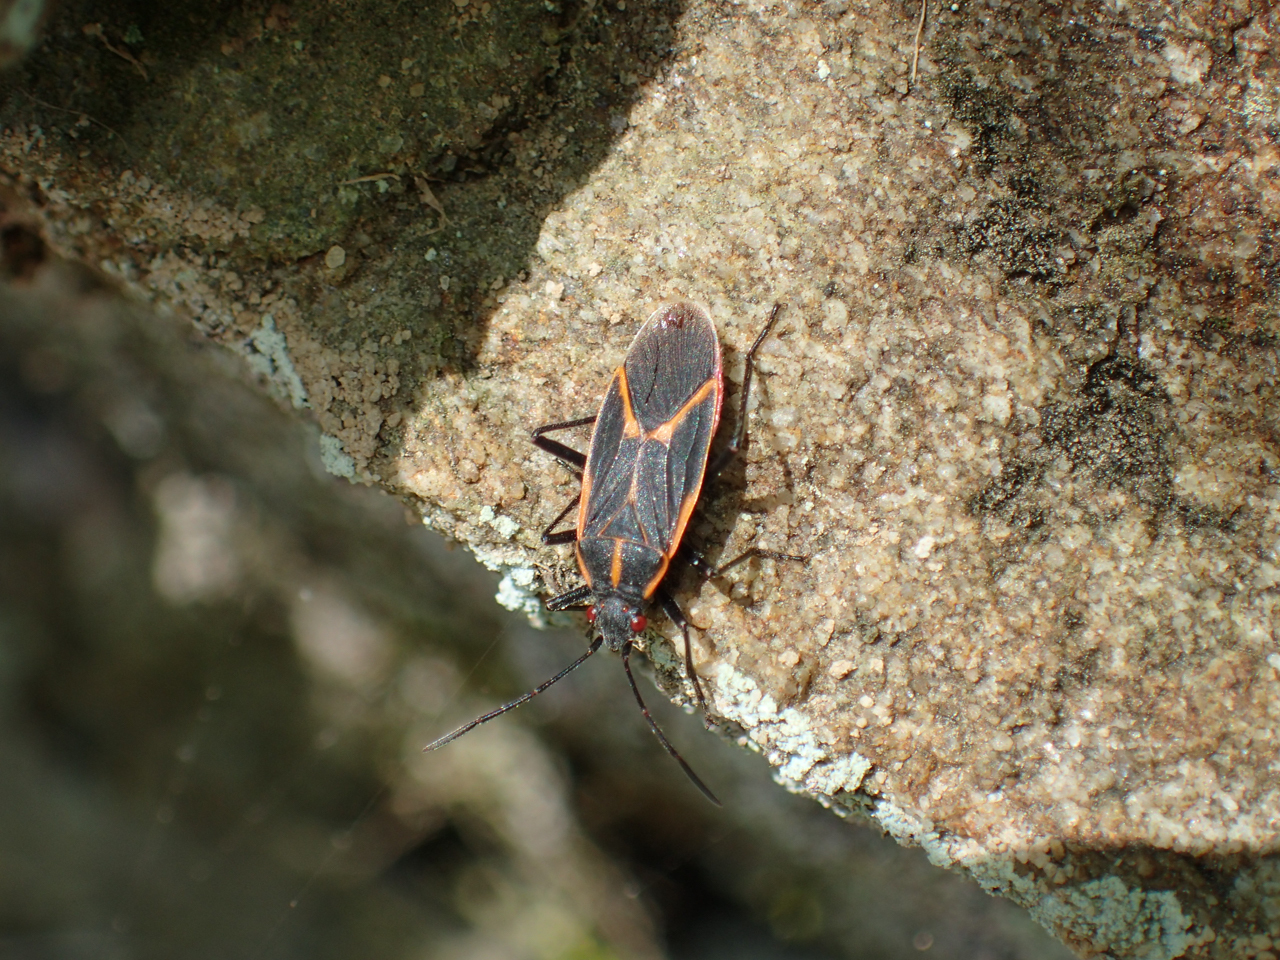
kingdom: Animalia
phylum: Arthropoda
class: Insecta
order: Hemiptera
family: Rhopalidae
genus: Boisea
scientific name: Boisea trivittata
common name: Boxelder bug
